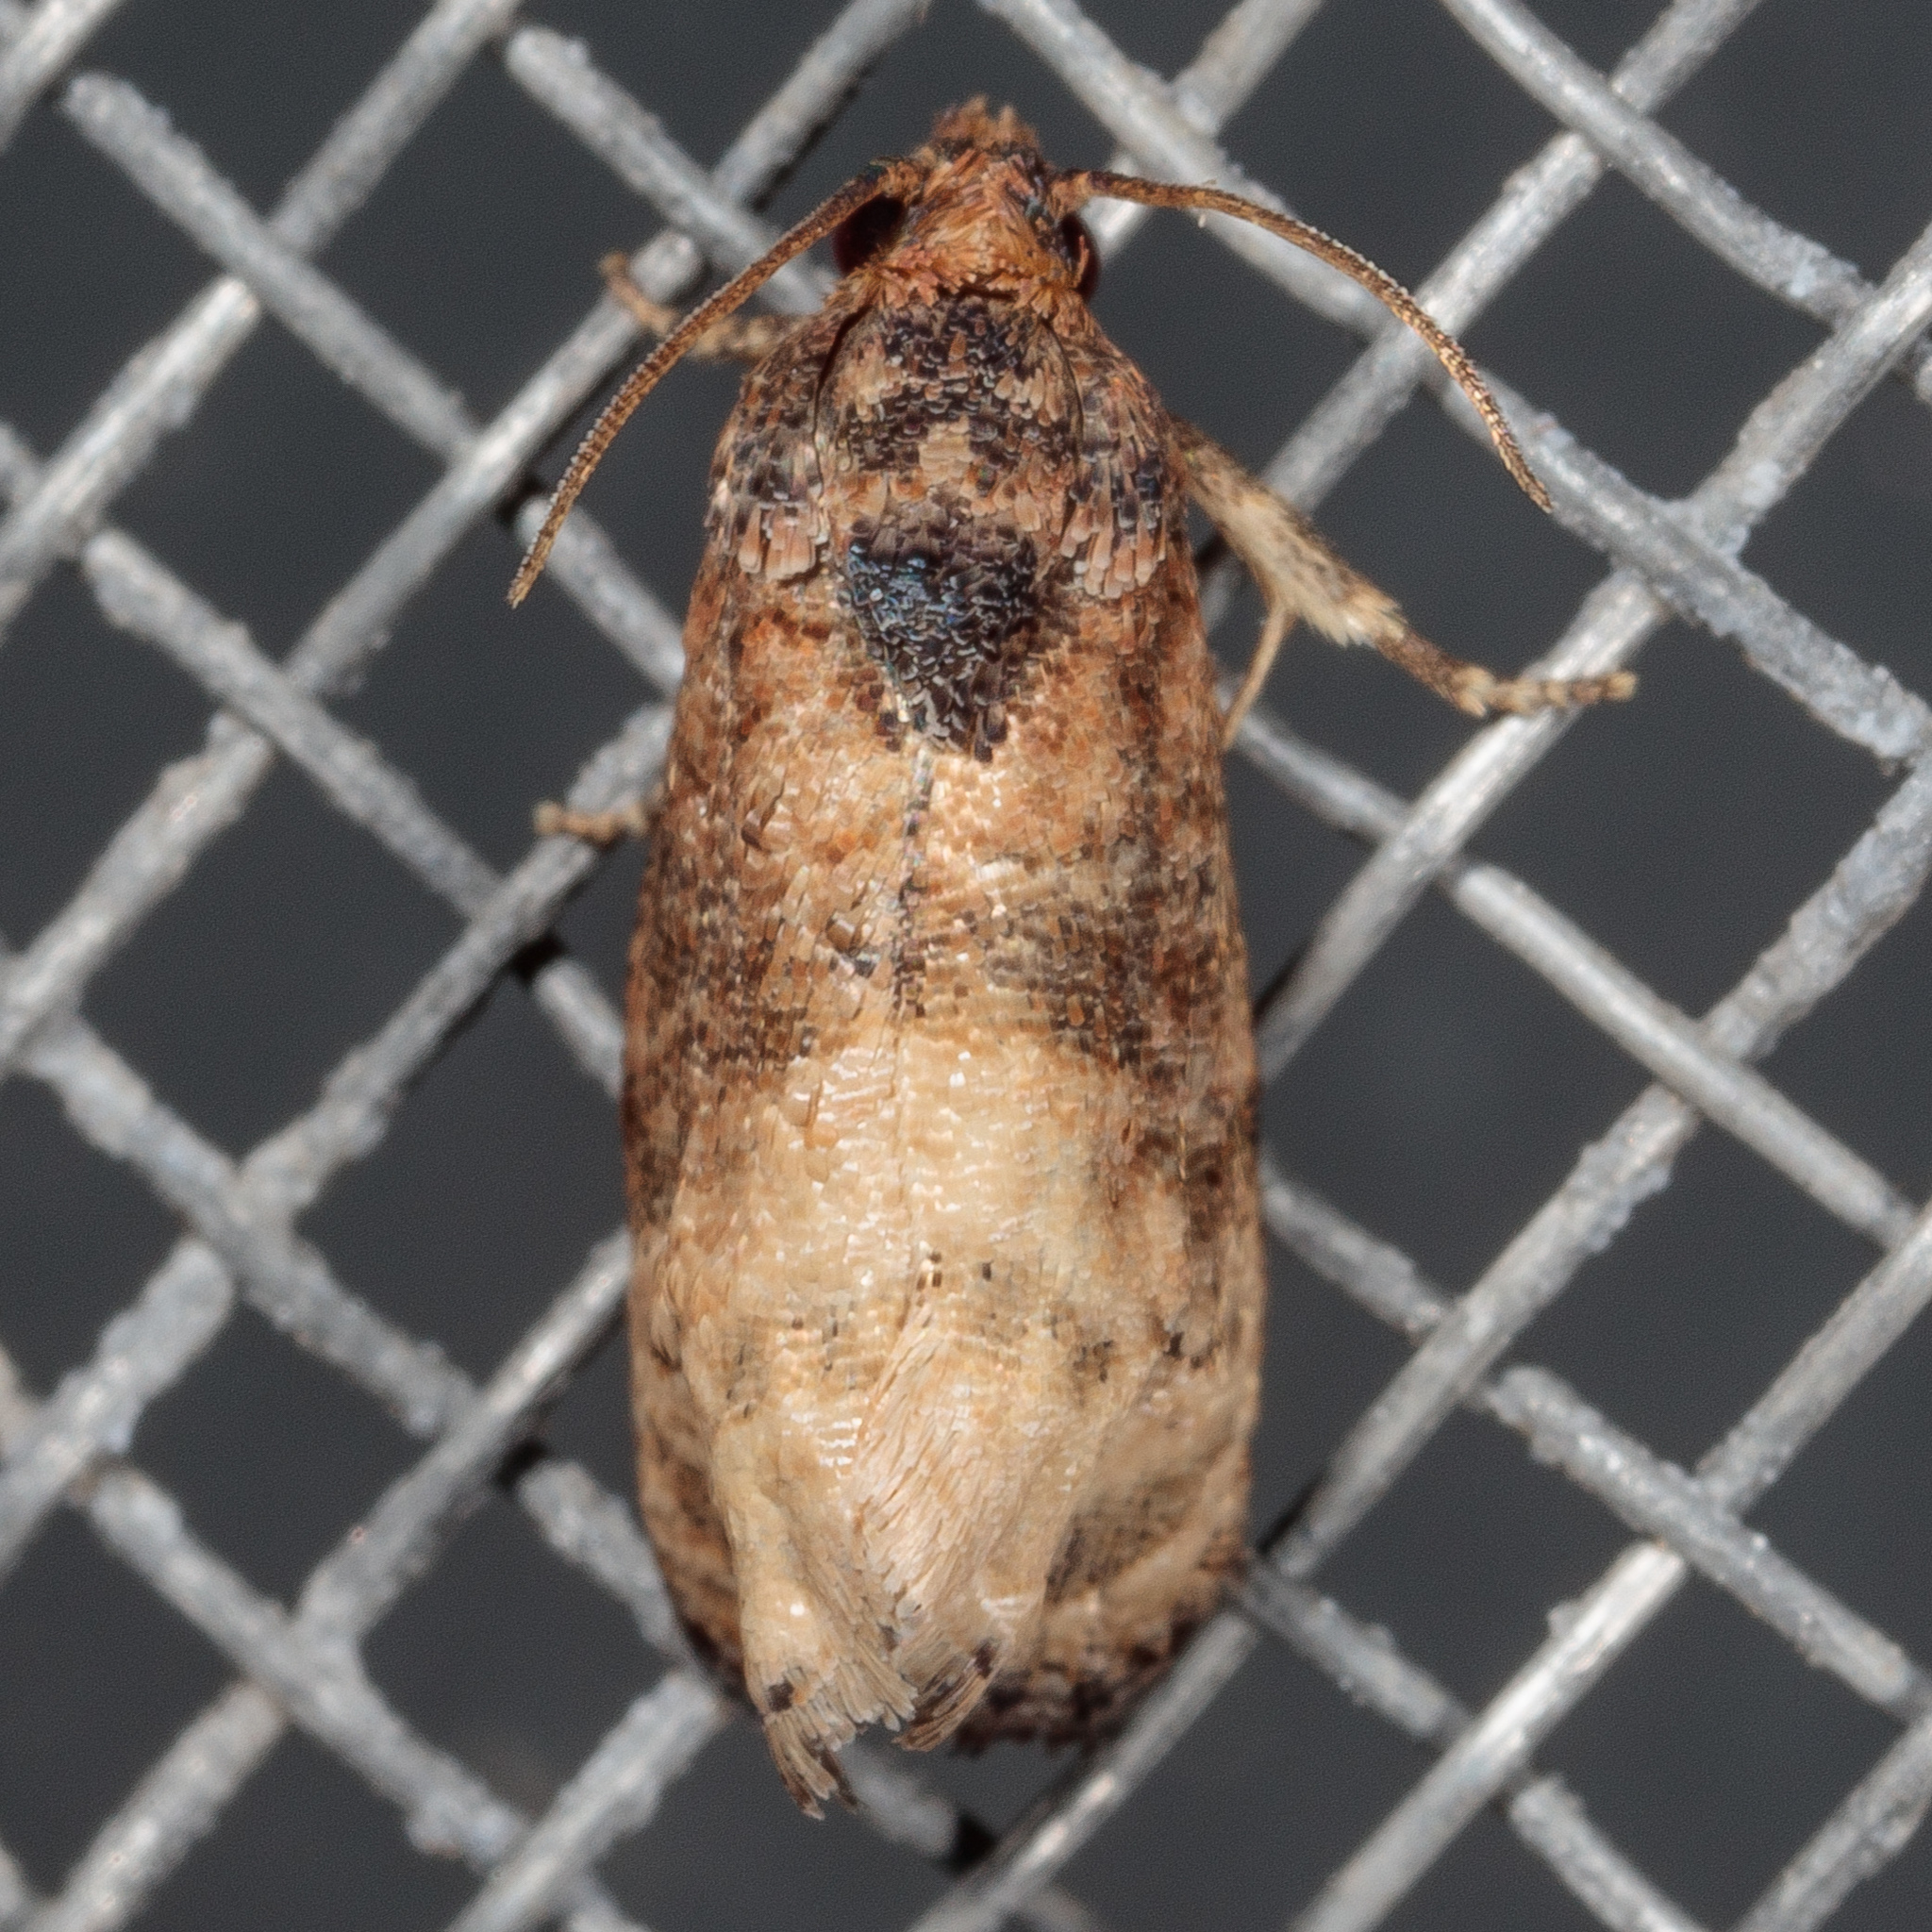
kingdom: Animalia
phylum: Arthropoda
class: Insecta
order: Lepidoptera
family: Tortricidae
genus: Ecdytolopha
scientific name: Ecdytolopha mana
